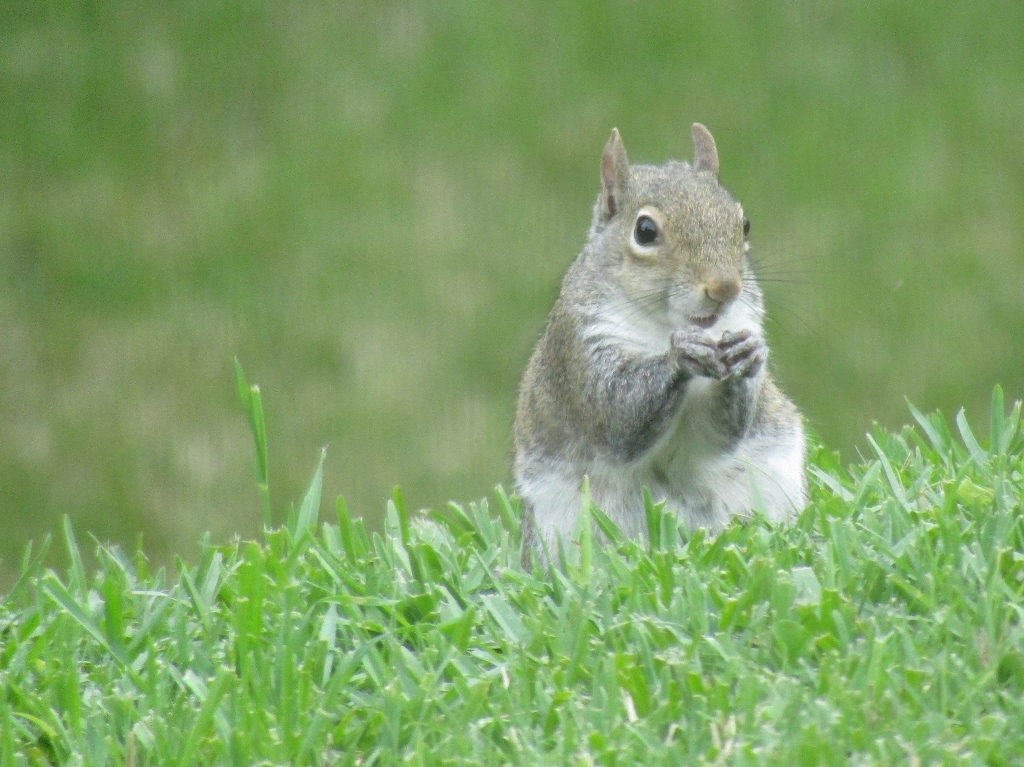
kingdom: Animalia
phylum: Chordata
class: Mammalia
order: Rodentia
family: Sciuridae
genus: Sciurus
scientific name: Sciurus carolinensis
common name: Eastern gray squirrel
